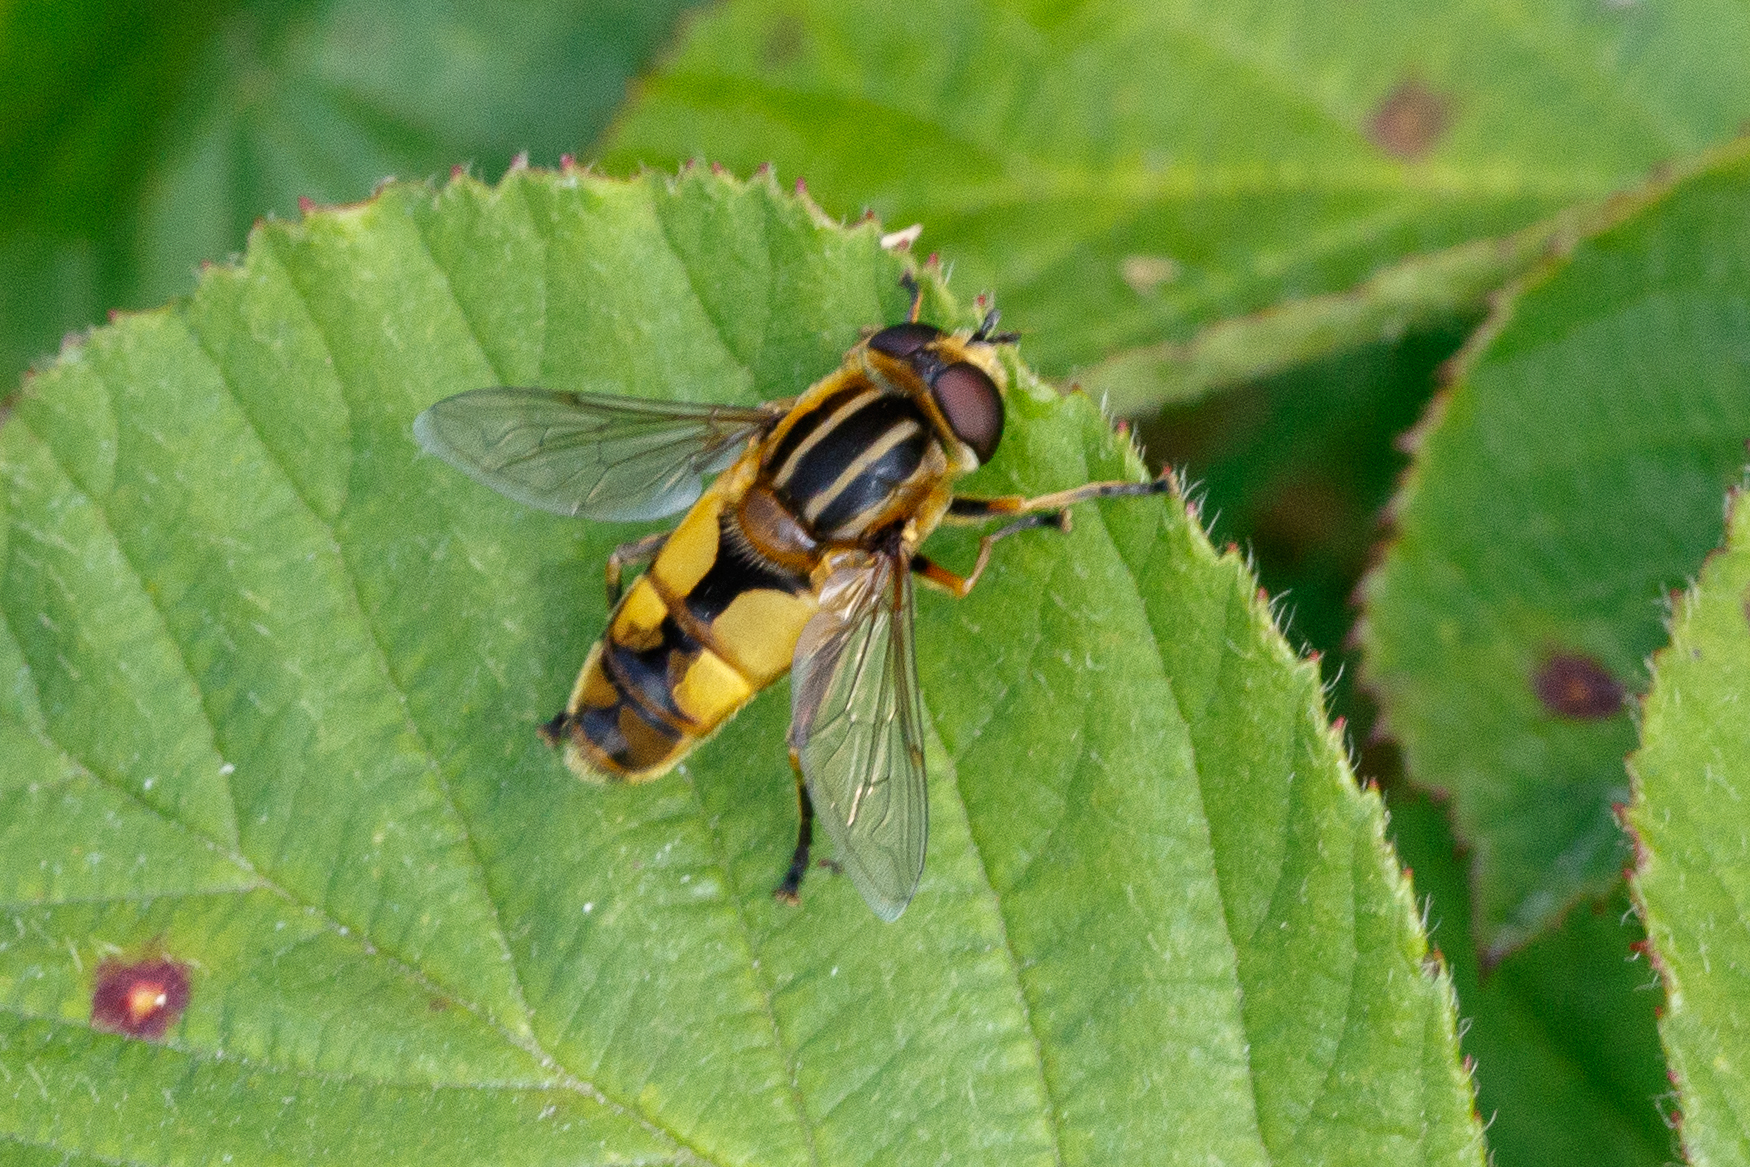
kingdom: Animalia
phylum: Arthropoda
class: Insecta
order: Diptera
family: Syrphidae
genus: Helophilus
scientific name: Helophilus hybridus
